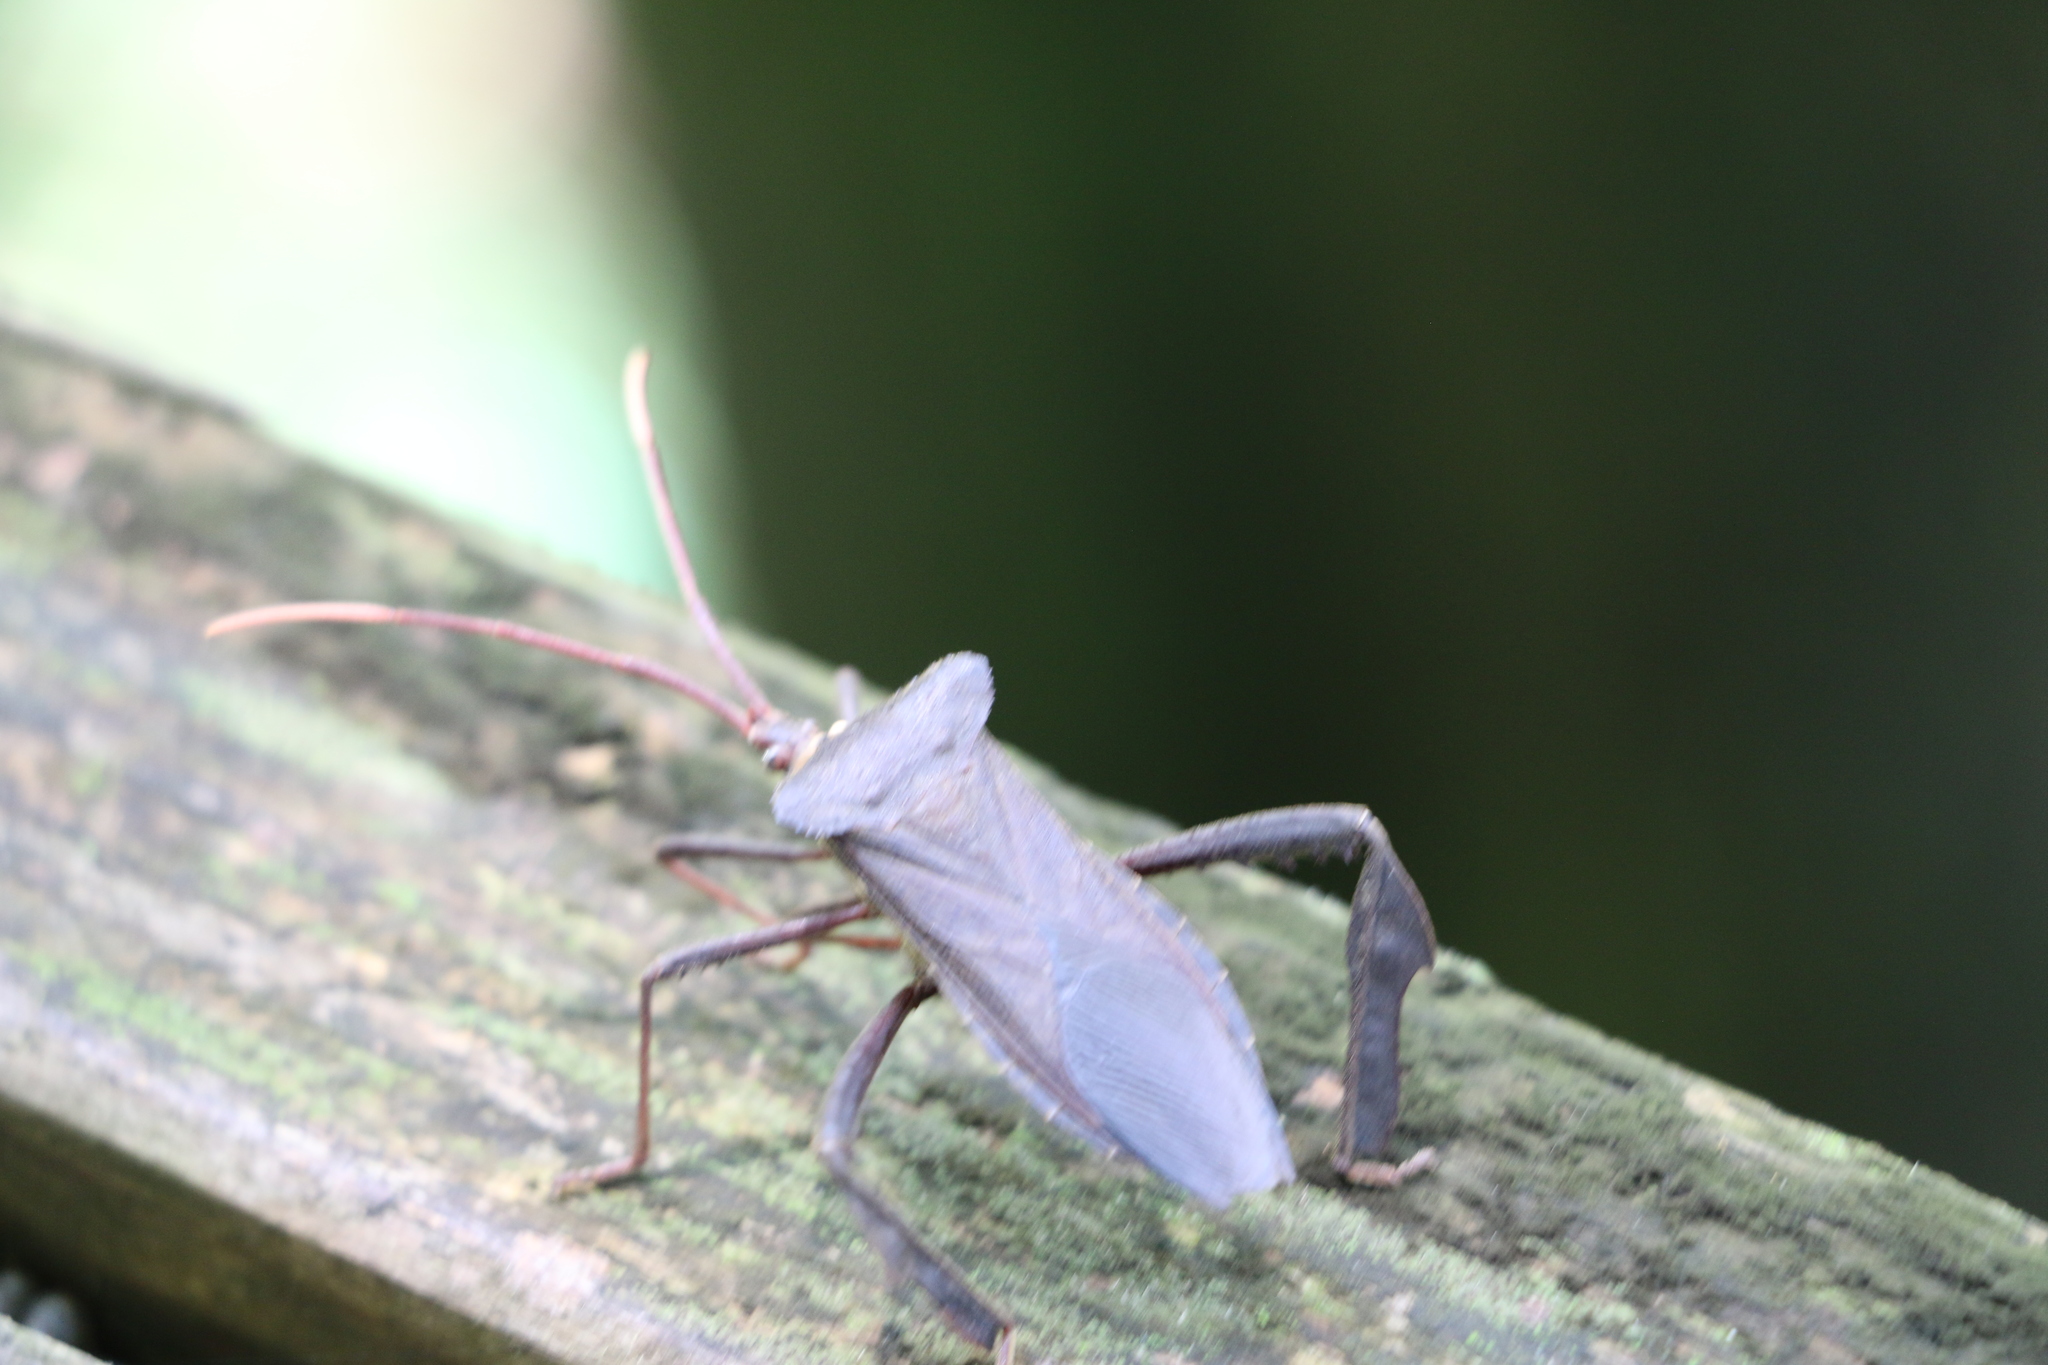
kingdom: Animalia
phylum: Arthropoda
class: Insecta
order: Hemiptera
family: Coreidae
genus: Acanthocephala
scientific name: Acanthocephala declivis
